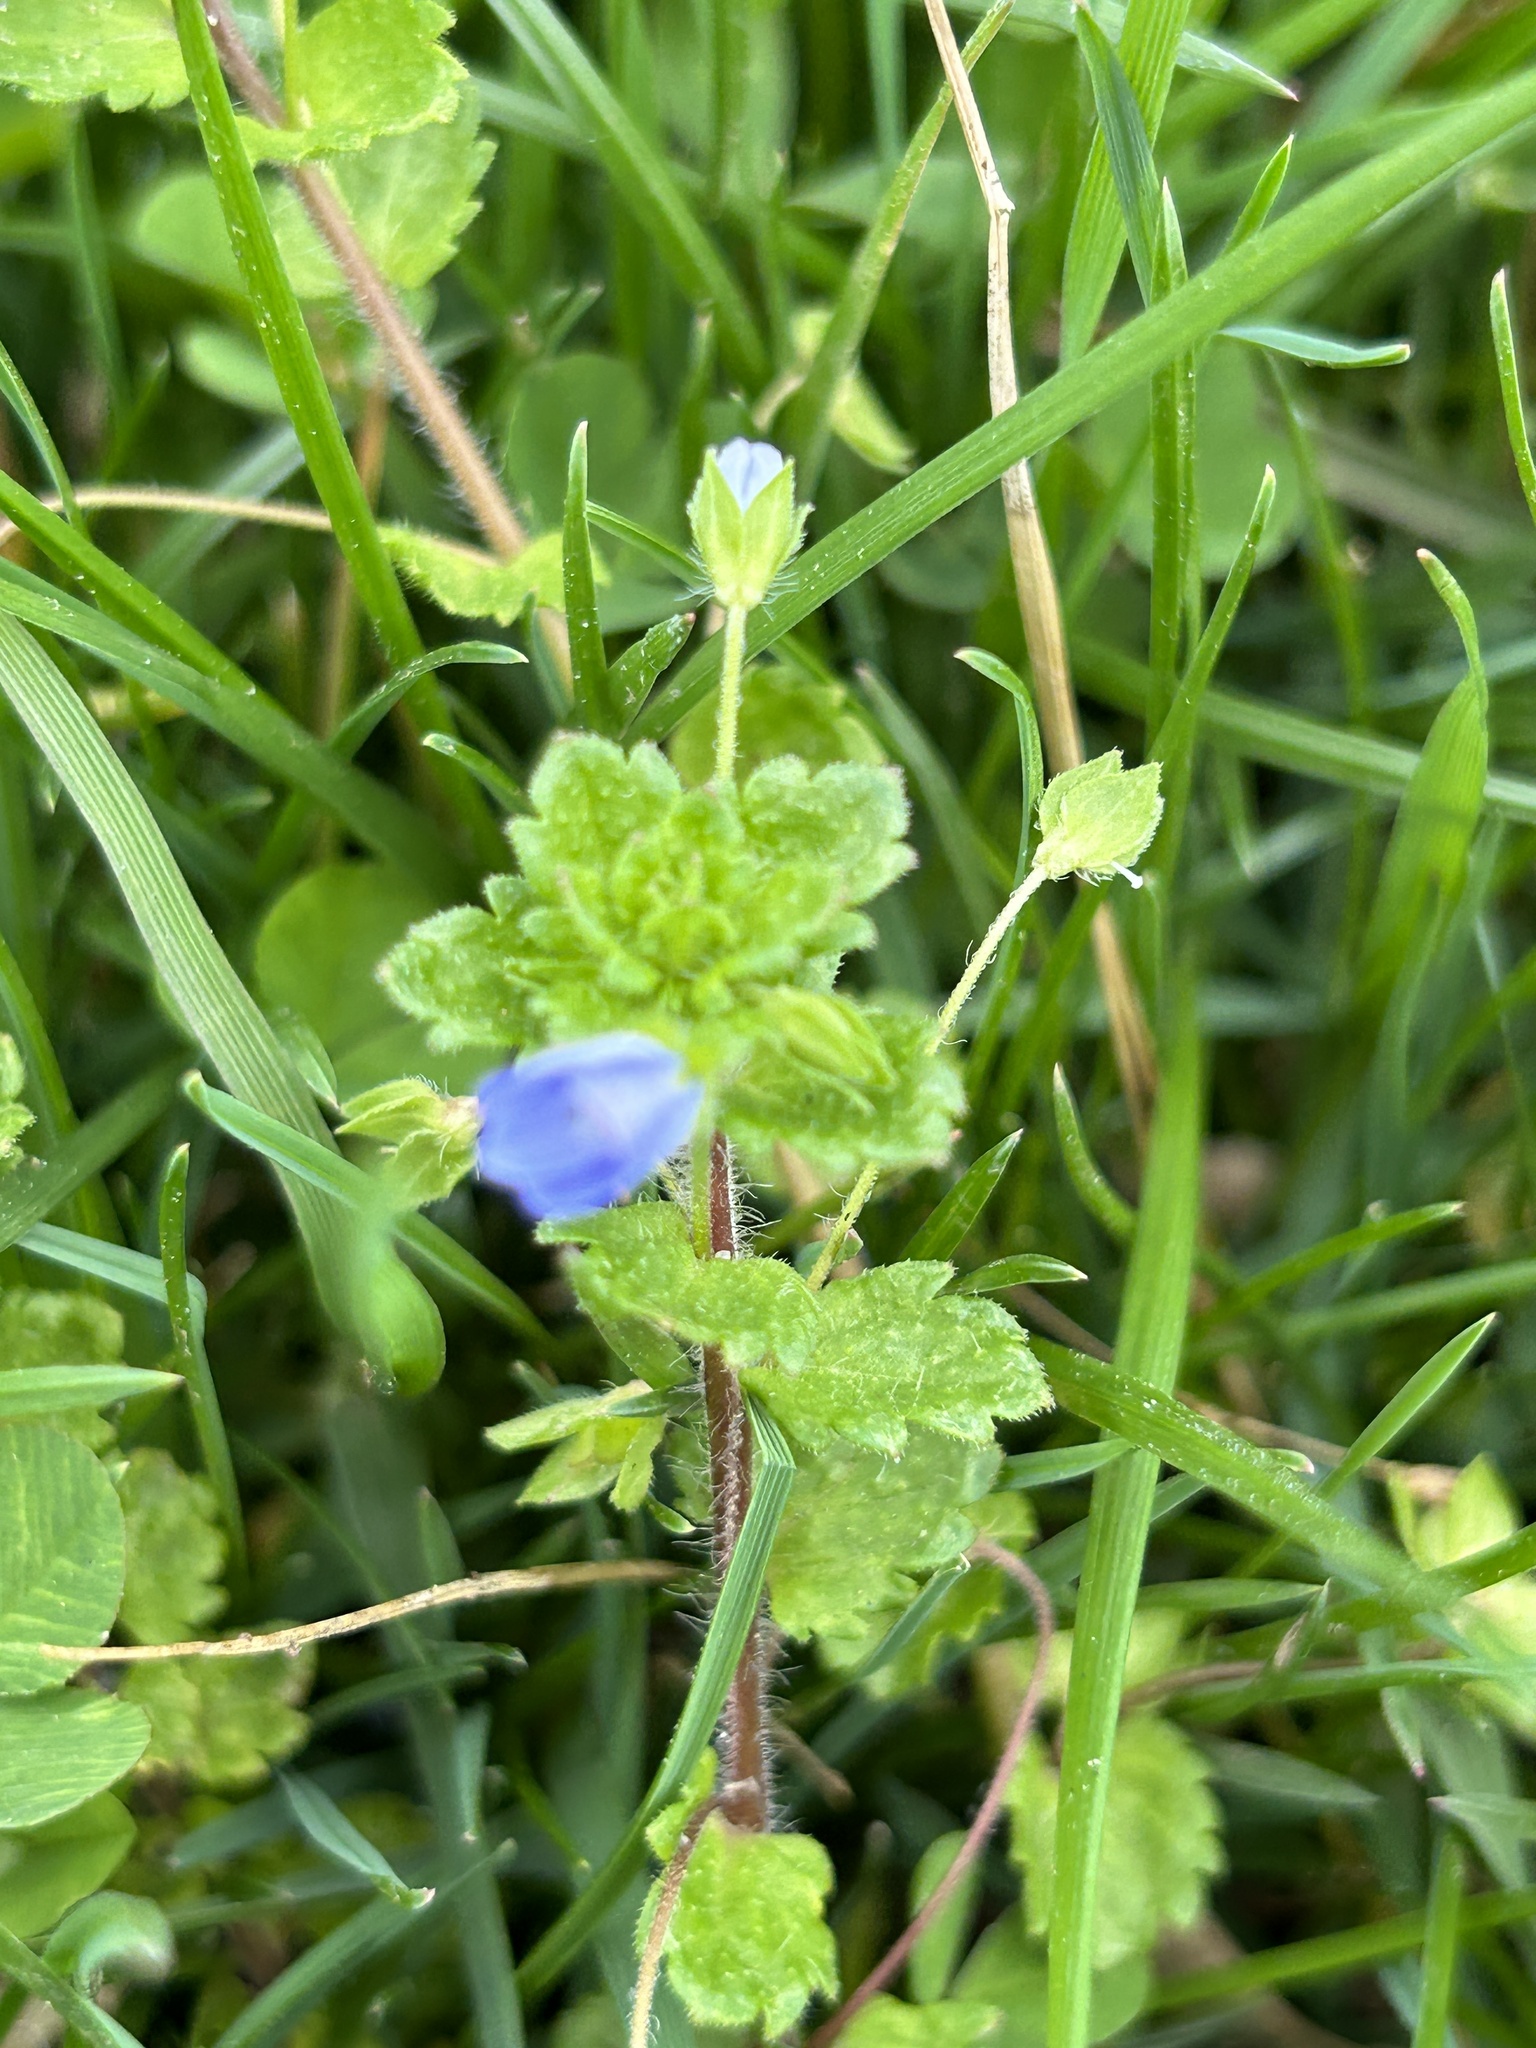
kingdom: Plantae
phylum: Tracheophyta
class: Magnoliopsida
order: Lamiales
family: Plantaginaceae
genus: Veronica
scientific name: Veronica persica
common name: Common field-speedwell
